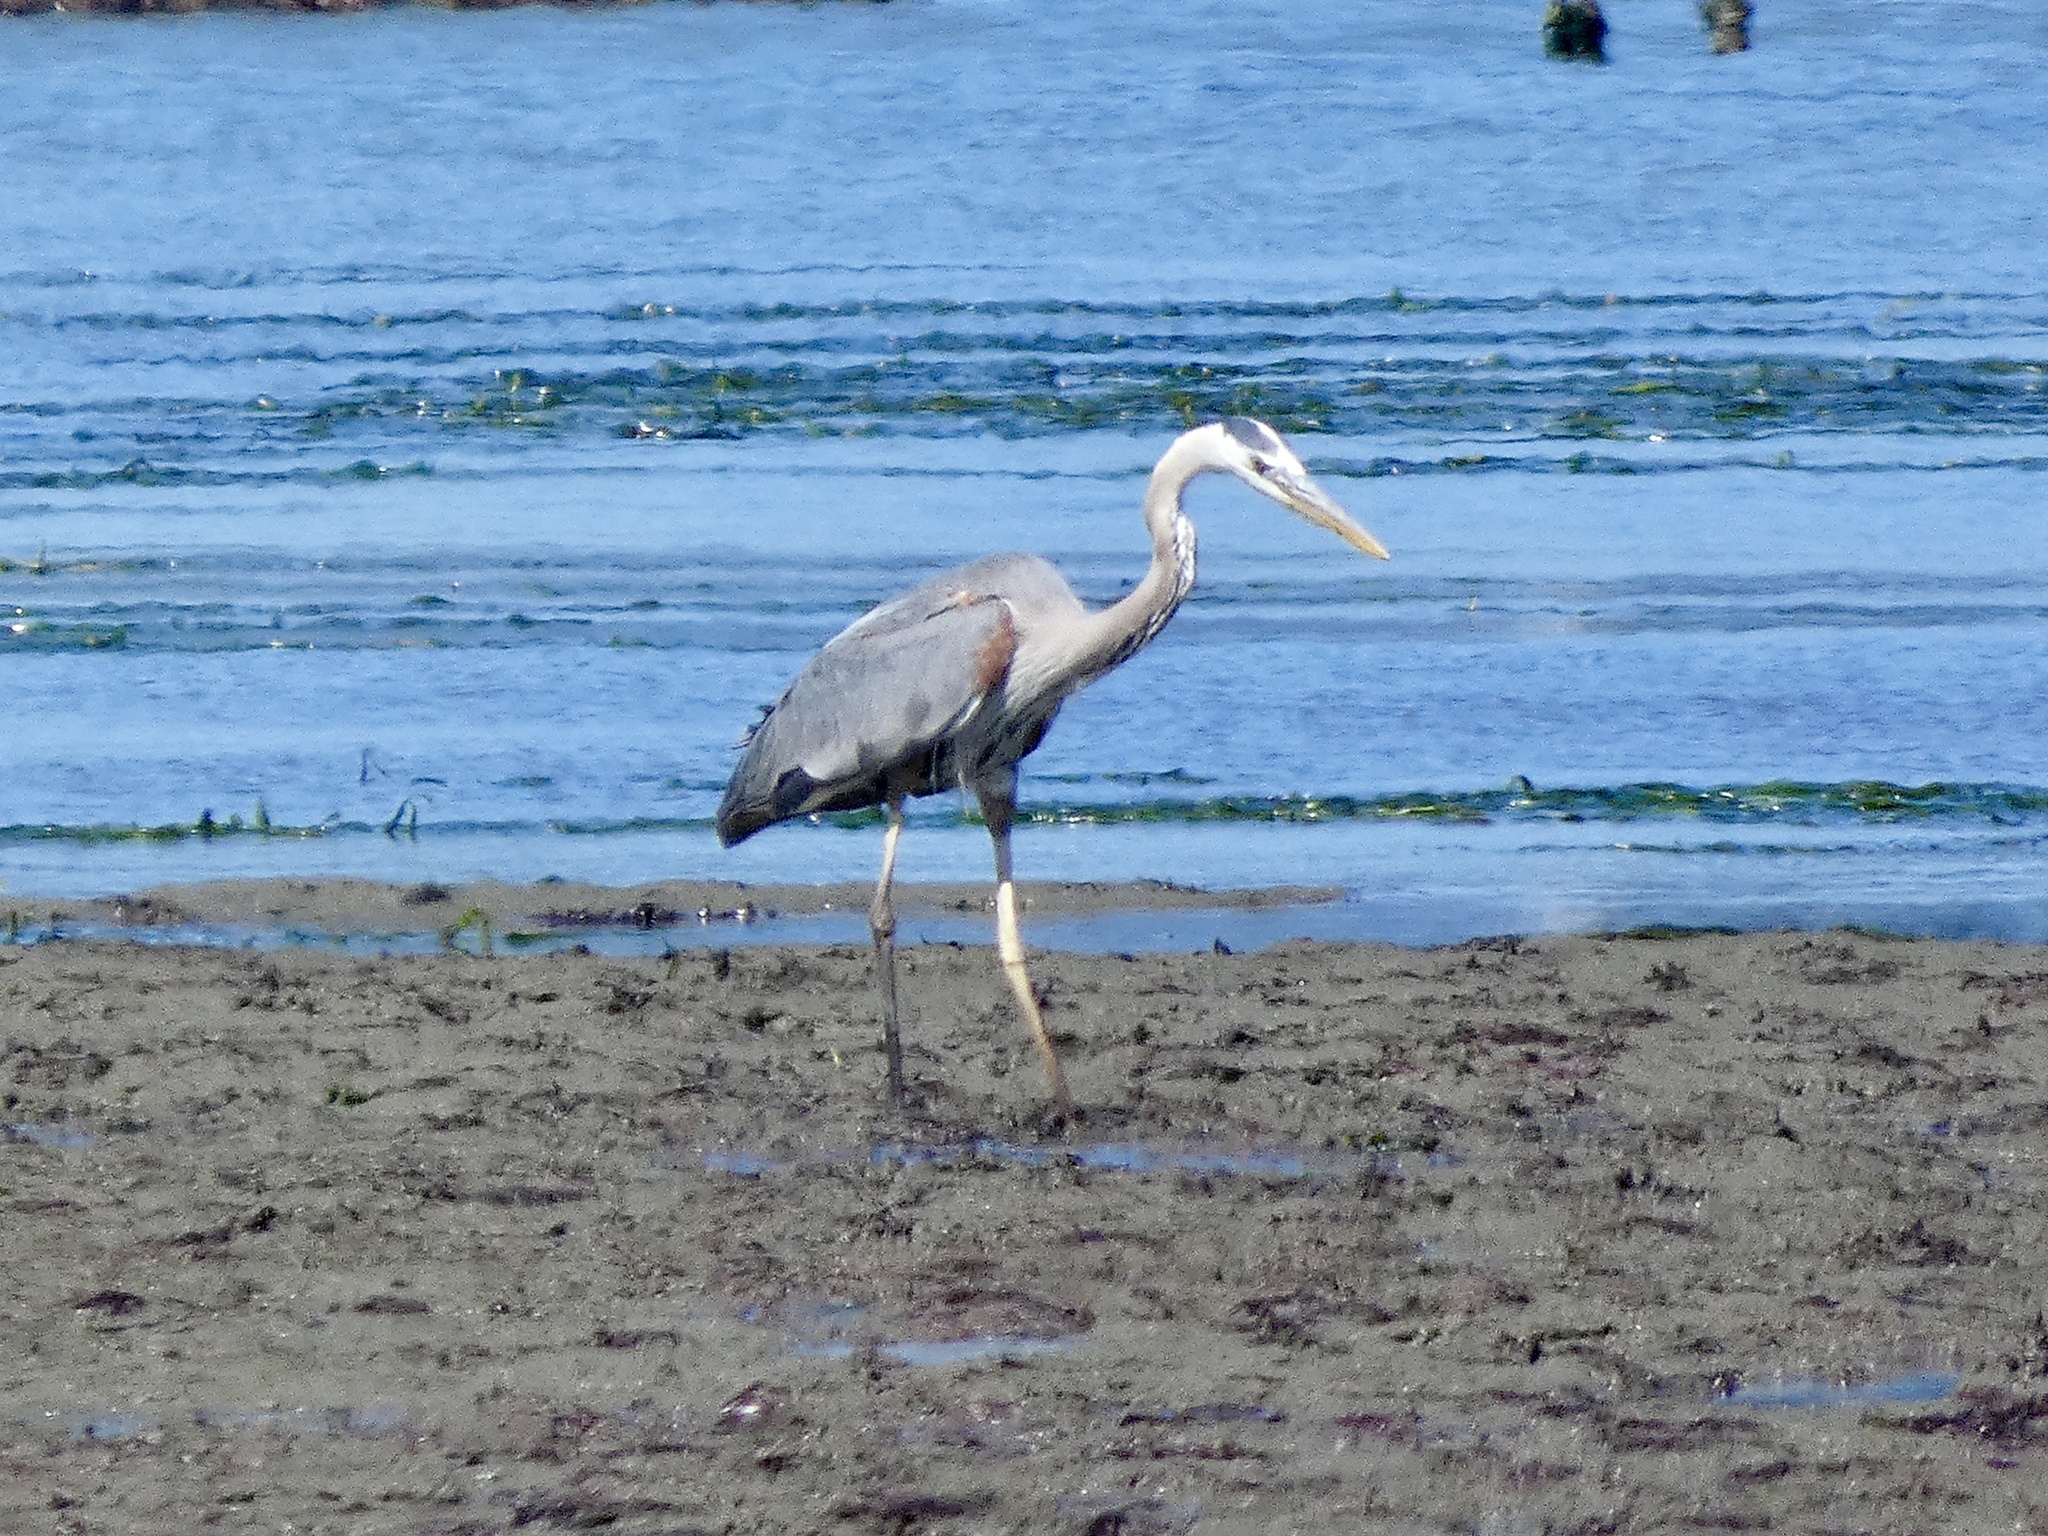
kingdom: Animalia
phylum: Chordata
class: Aves
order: Pelecaniformes
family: Ardeidae
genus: Ardea
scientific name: Ardea herodias
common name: Great blue heron
